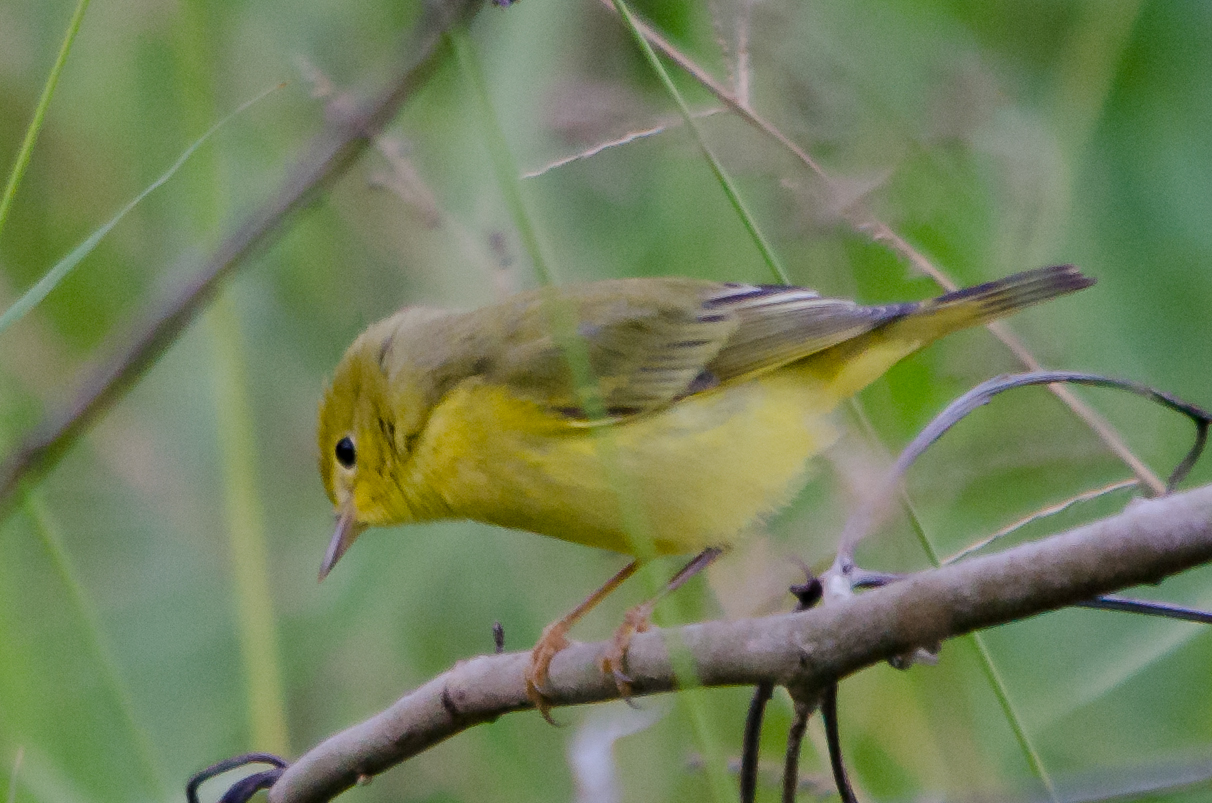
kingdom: Animalia
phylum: Chordata
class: Aves
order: Passeriformes
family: Parulidae
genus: Setophaga
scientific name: Setophaga petechia
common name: Yellow warbler
